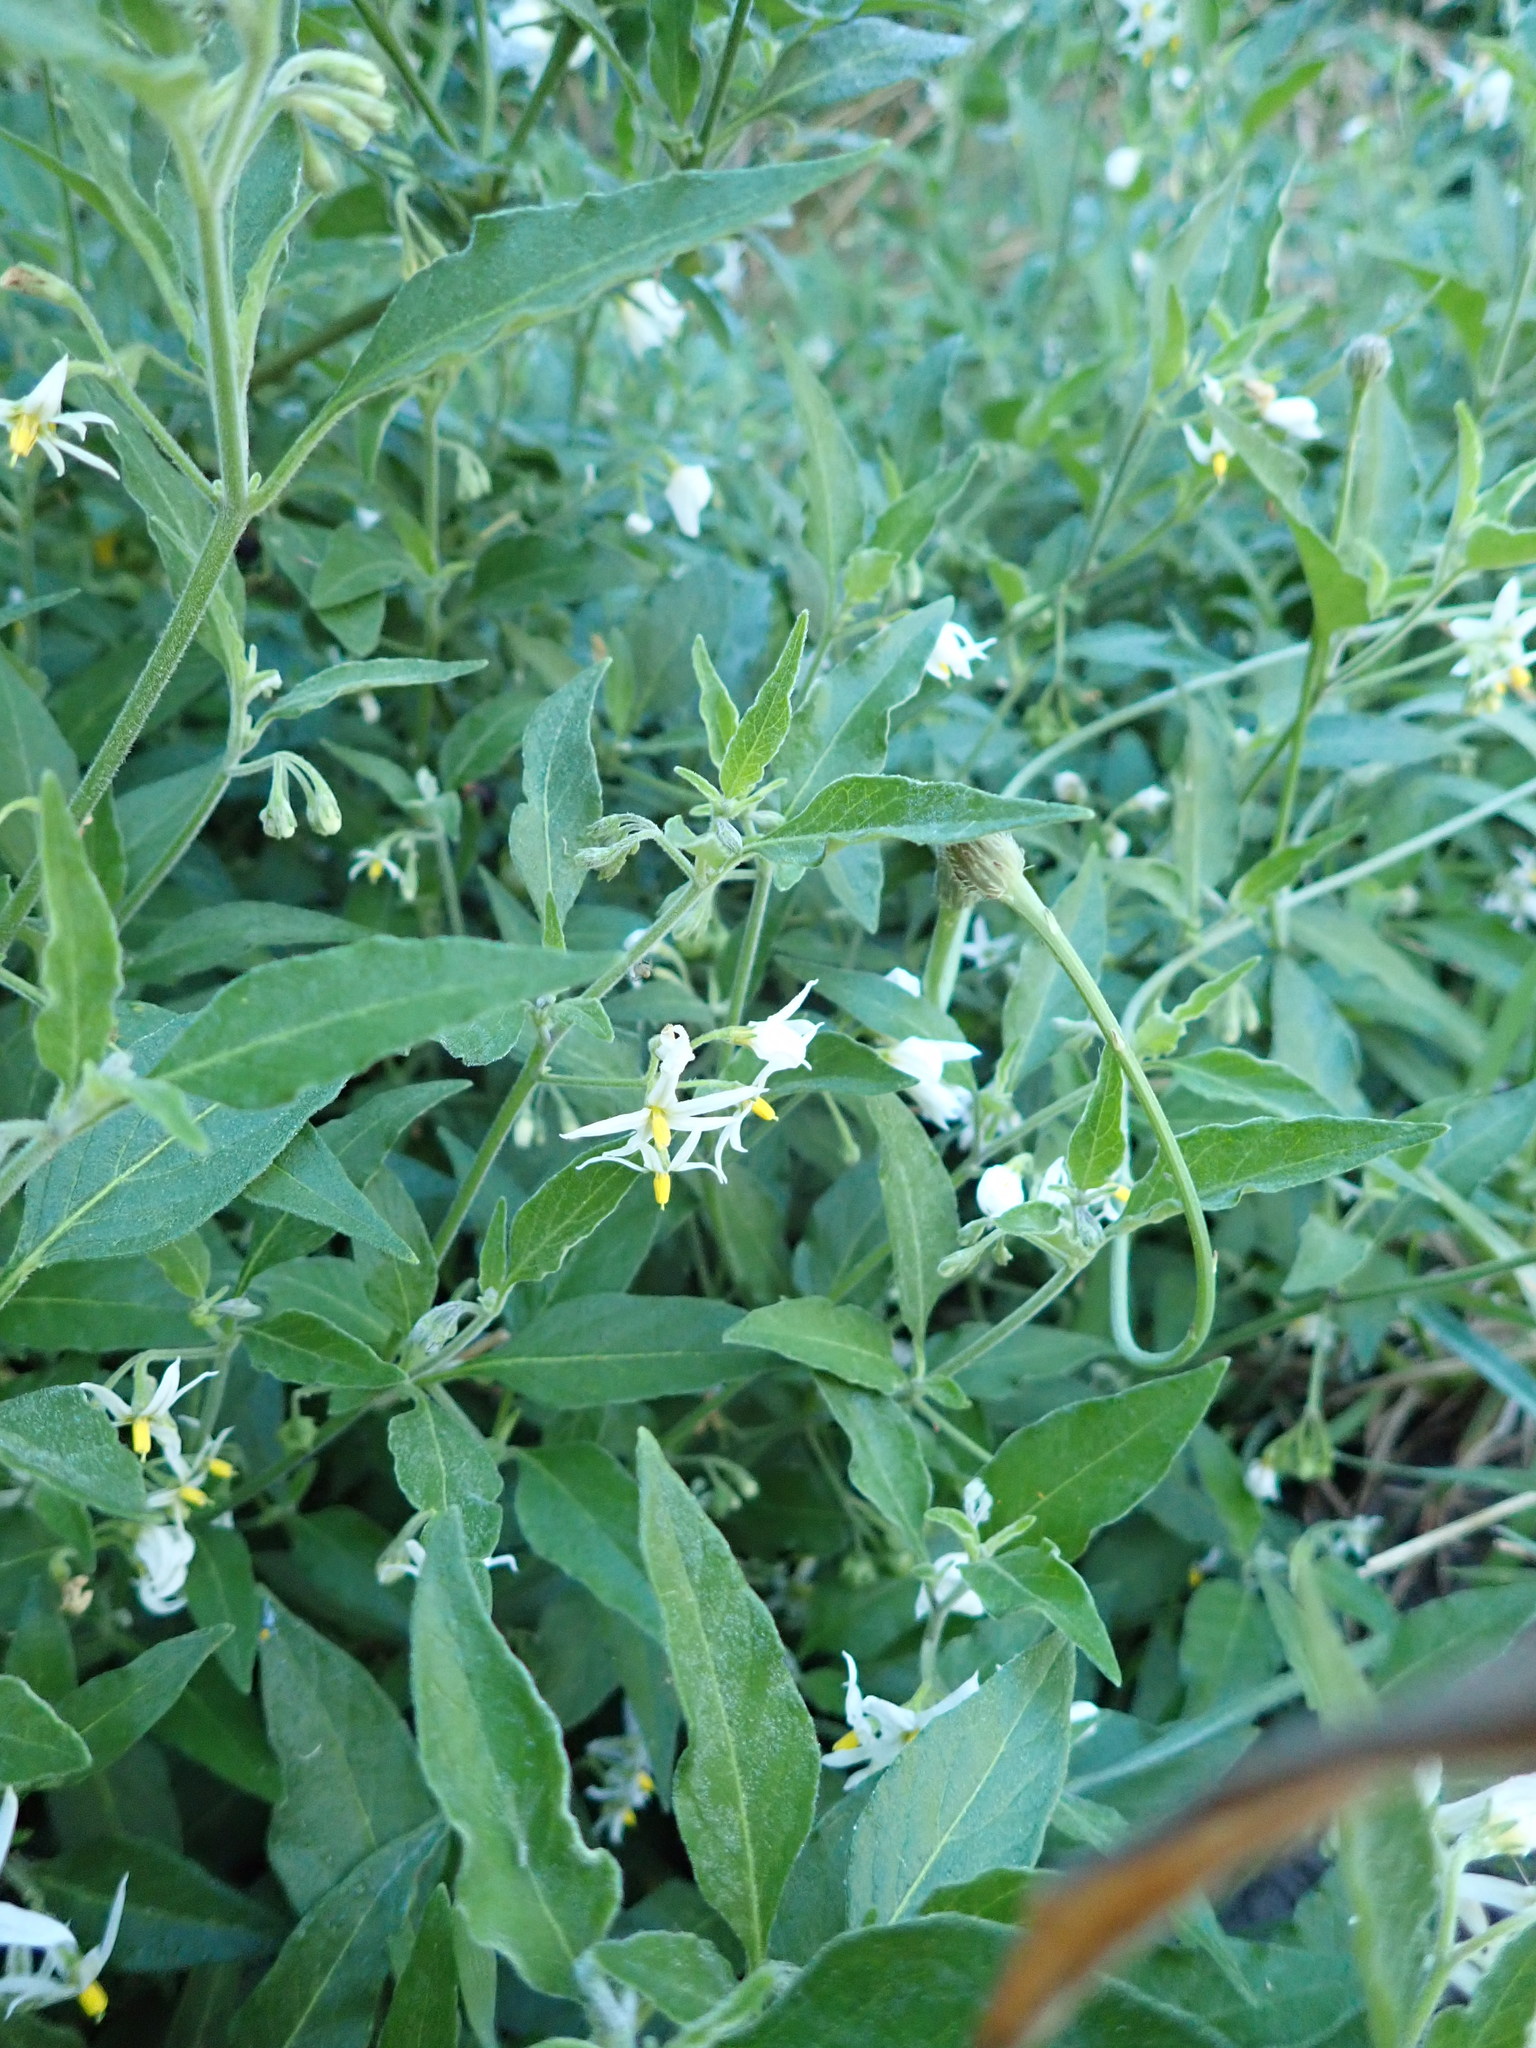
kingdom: Plantae
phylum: Tracheophyta
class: Magnoliopsida
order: Solanales
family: Solanaceae
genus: Solanum
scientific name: Solanum chenopodioides
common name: Tall nightshade
